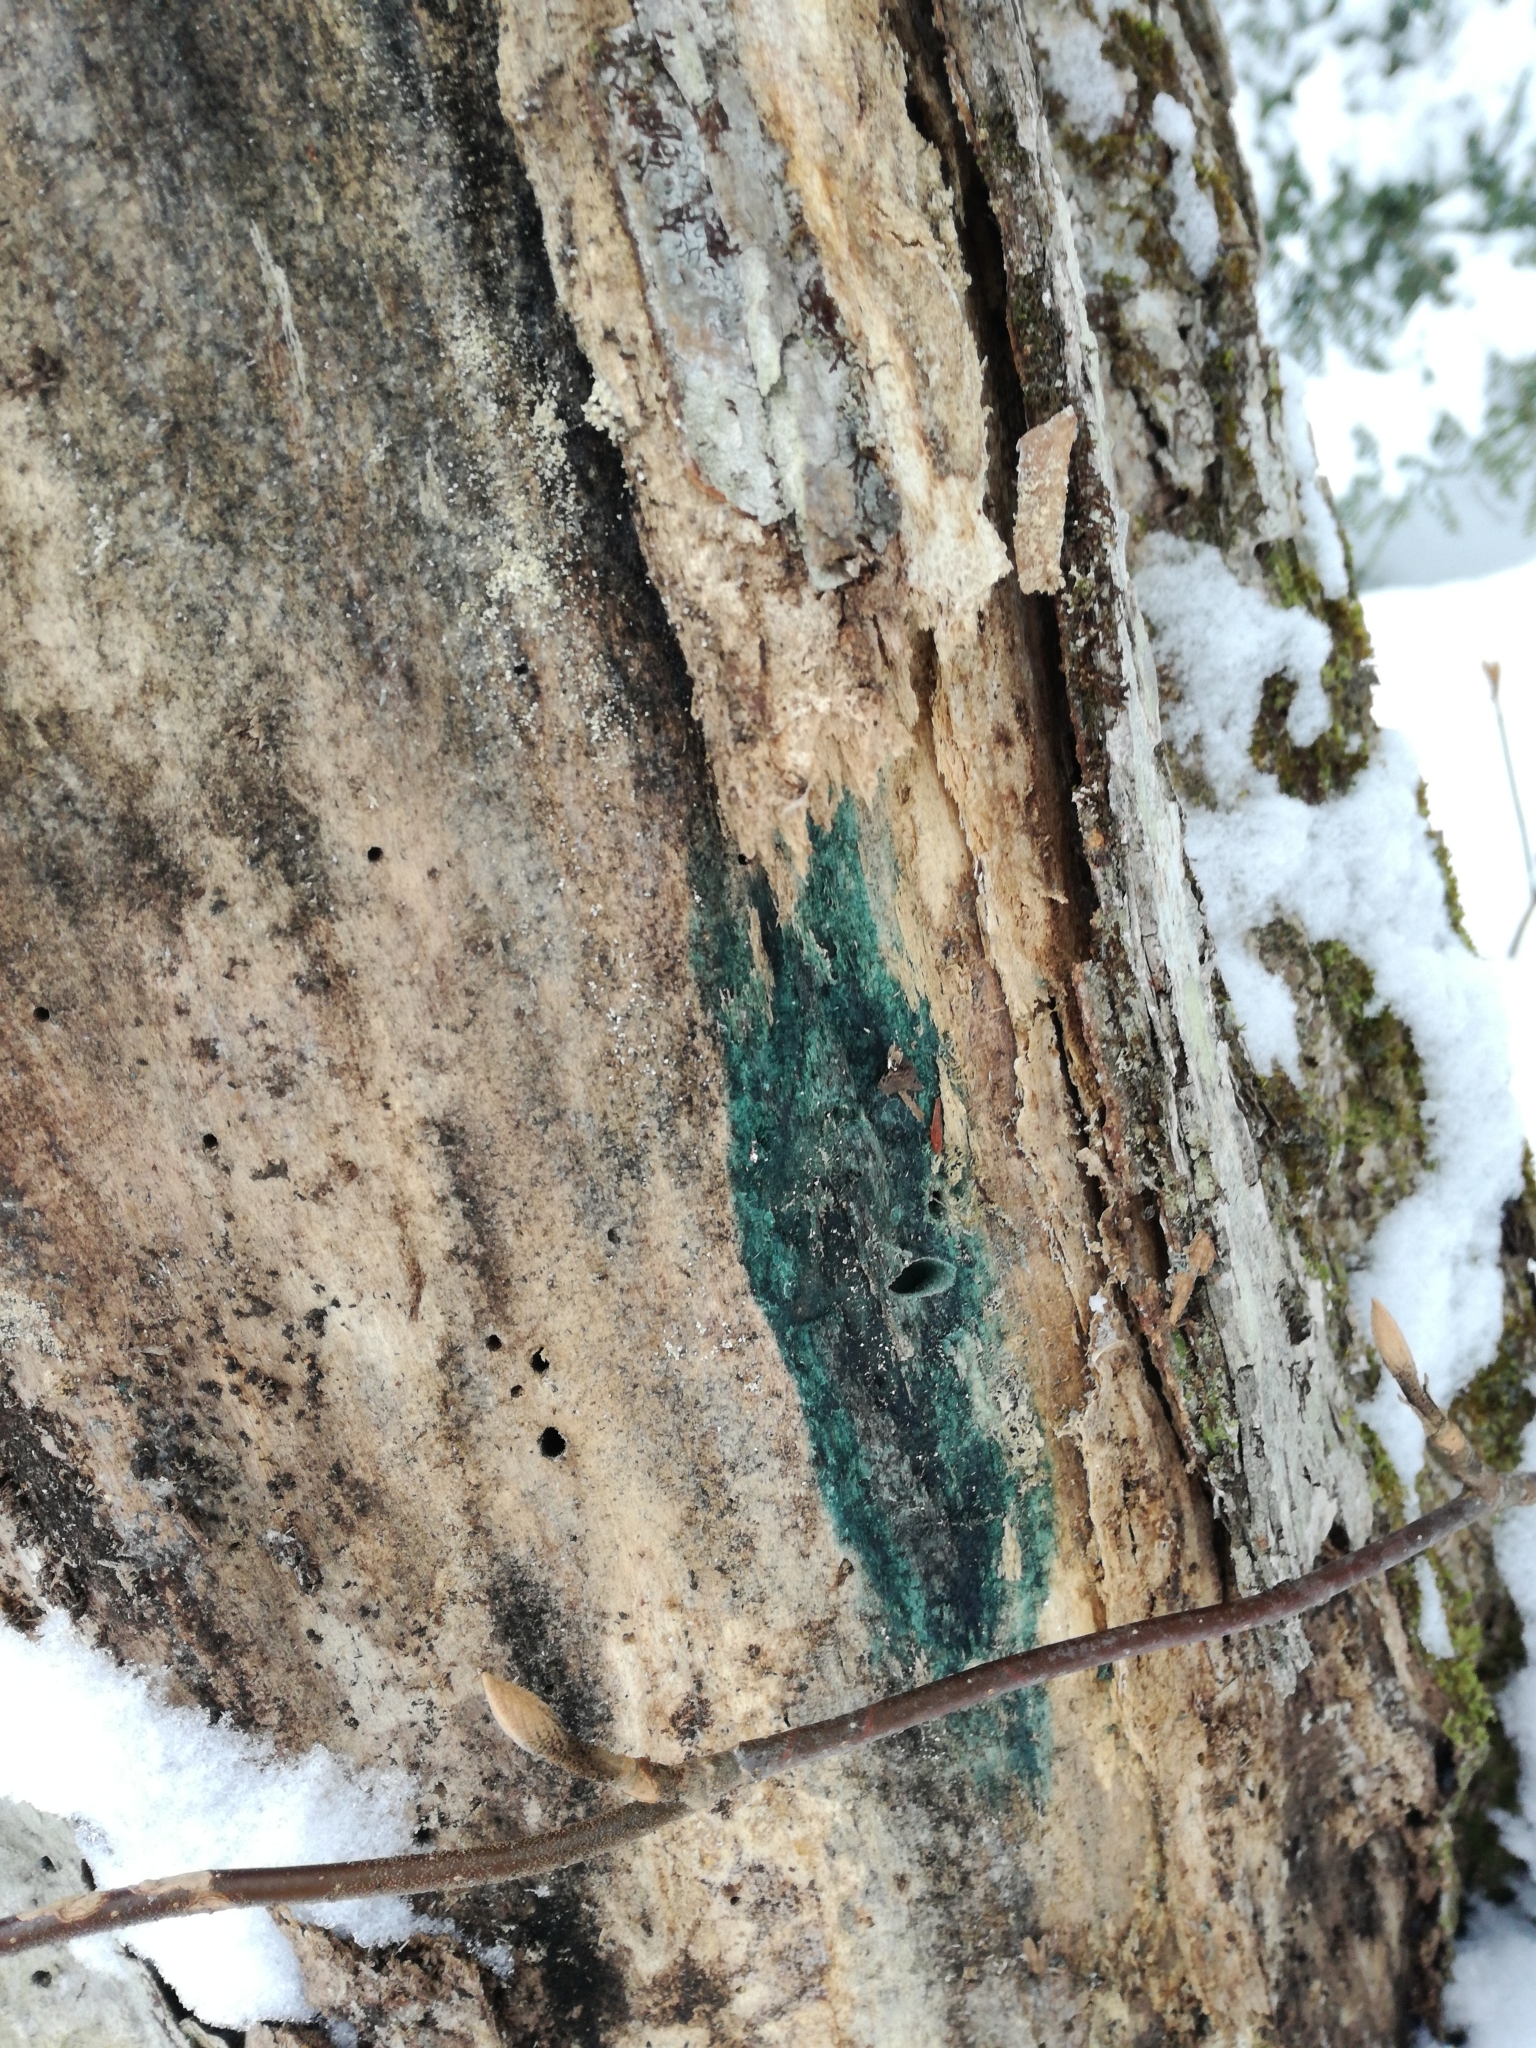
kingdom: Fungi
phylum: Ascomycota
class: Leotiomycetes
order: Helotiales
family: Chlorociboriaceae
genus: Chlorociboria
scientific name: Chlorociboria
